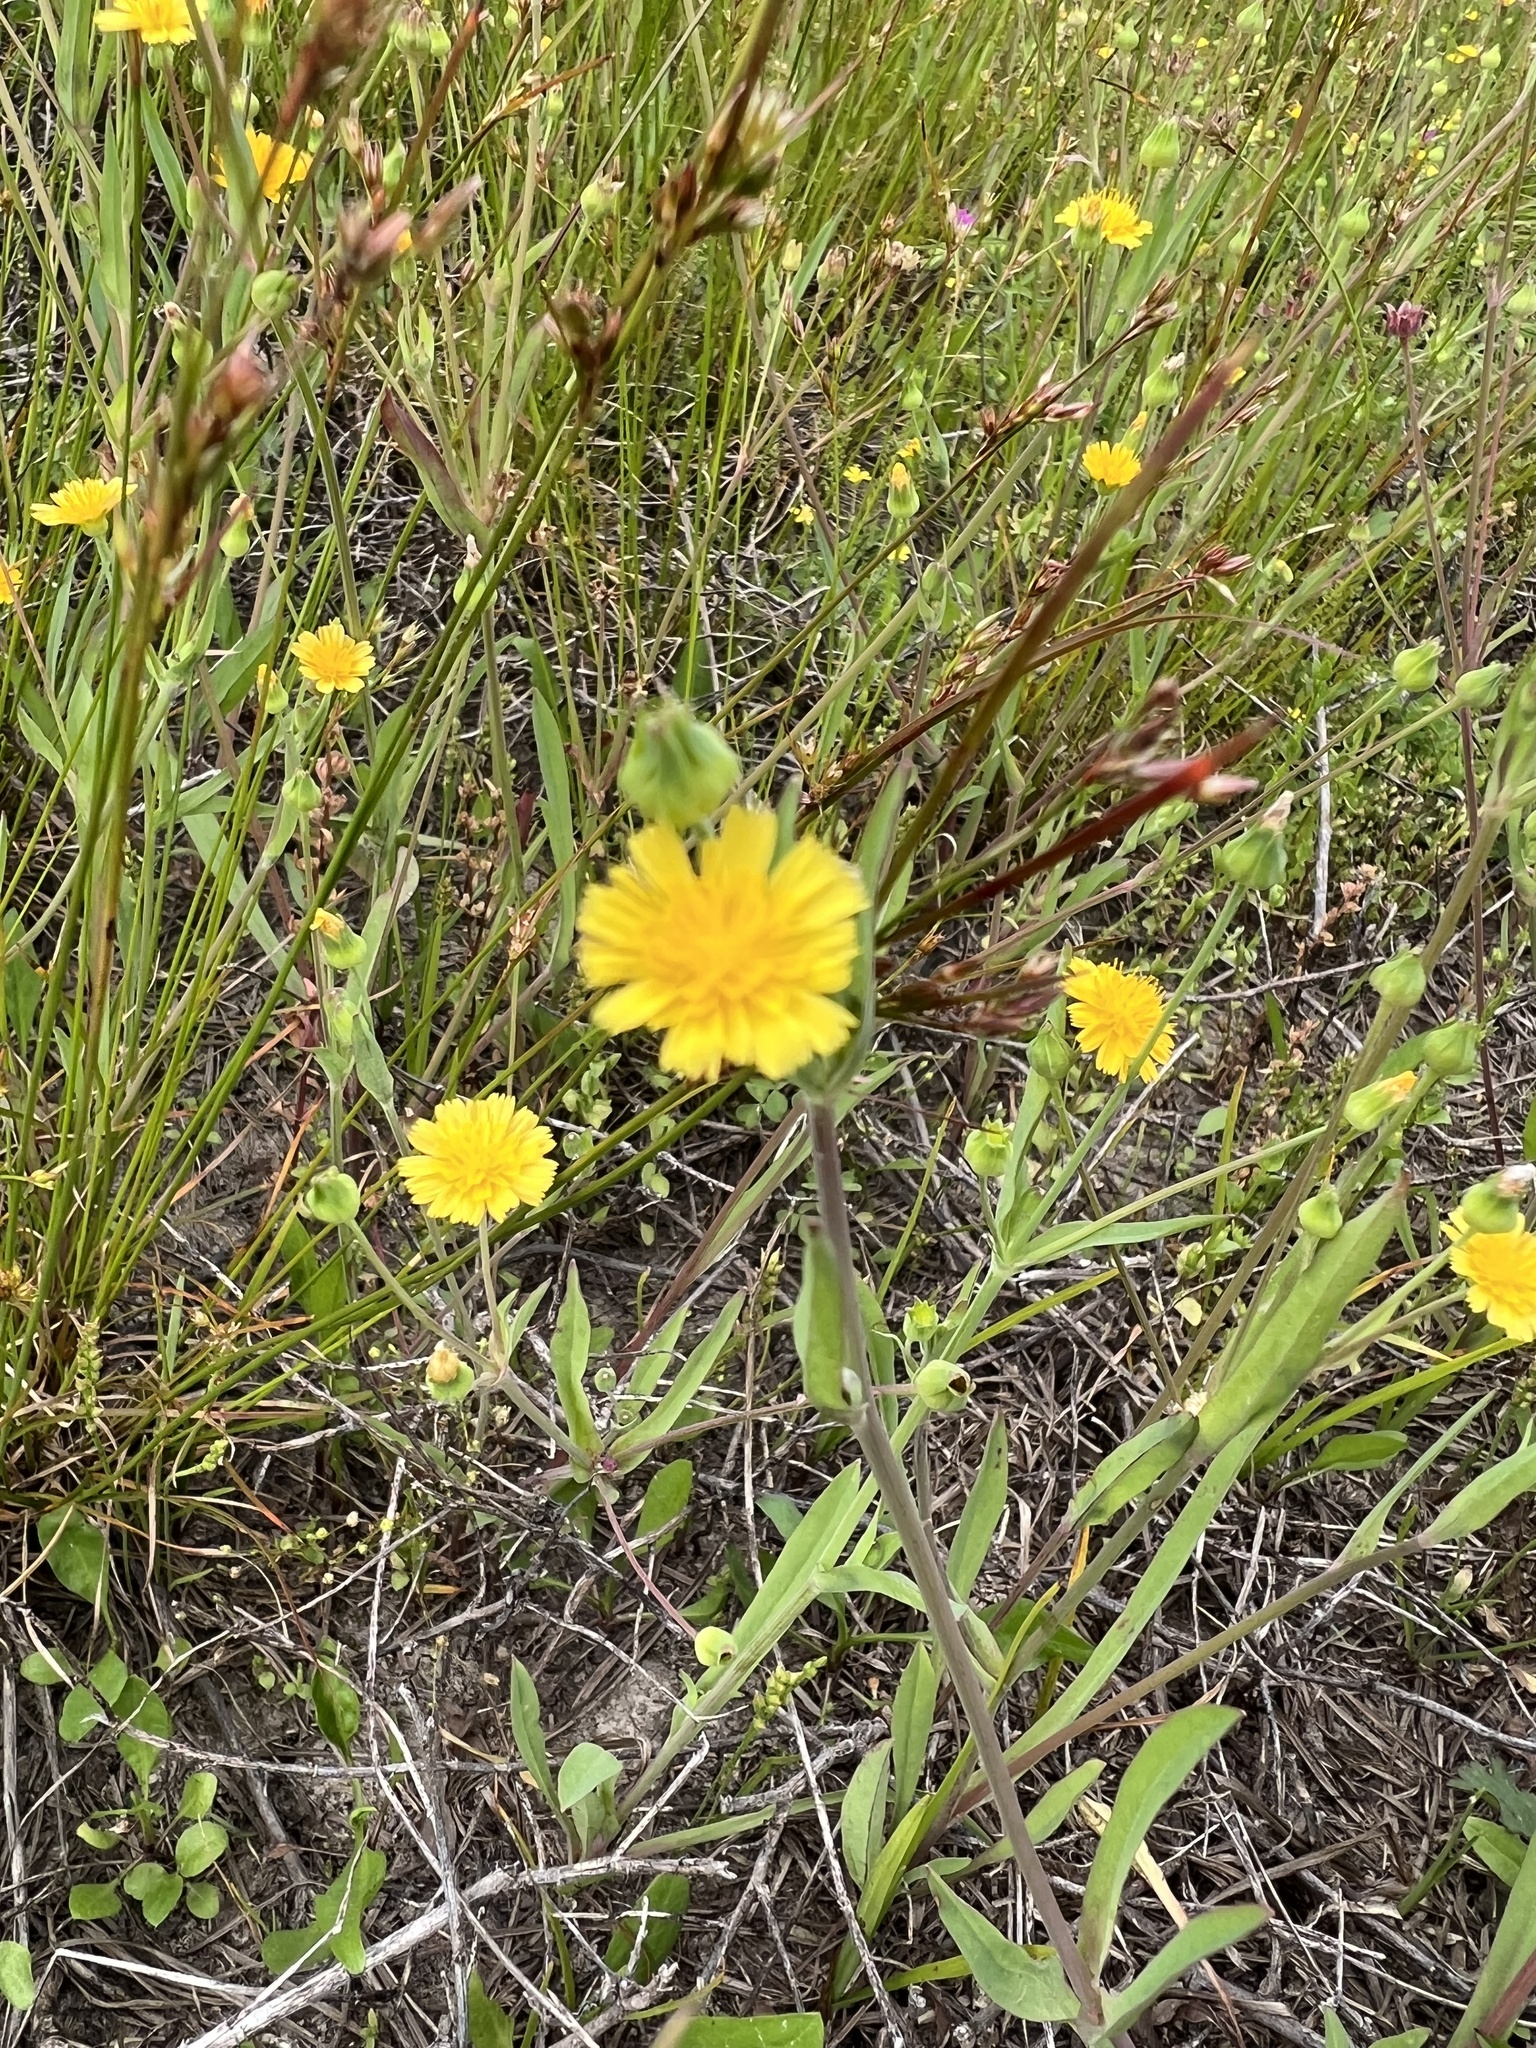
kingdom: Plantae
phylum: Tracheophyta
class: Magnoliopsida
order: Asterales
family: Asteraceae
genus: Krigia
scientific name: Krigia cespitosa
